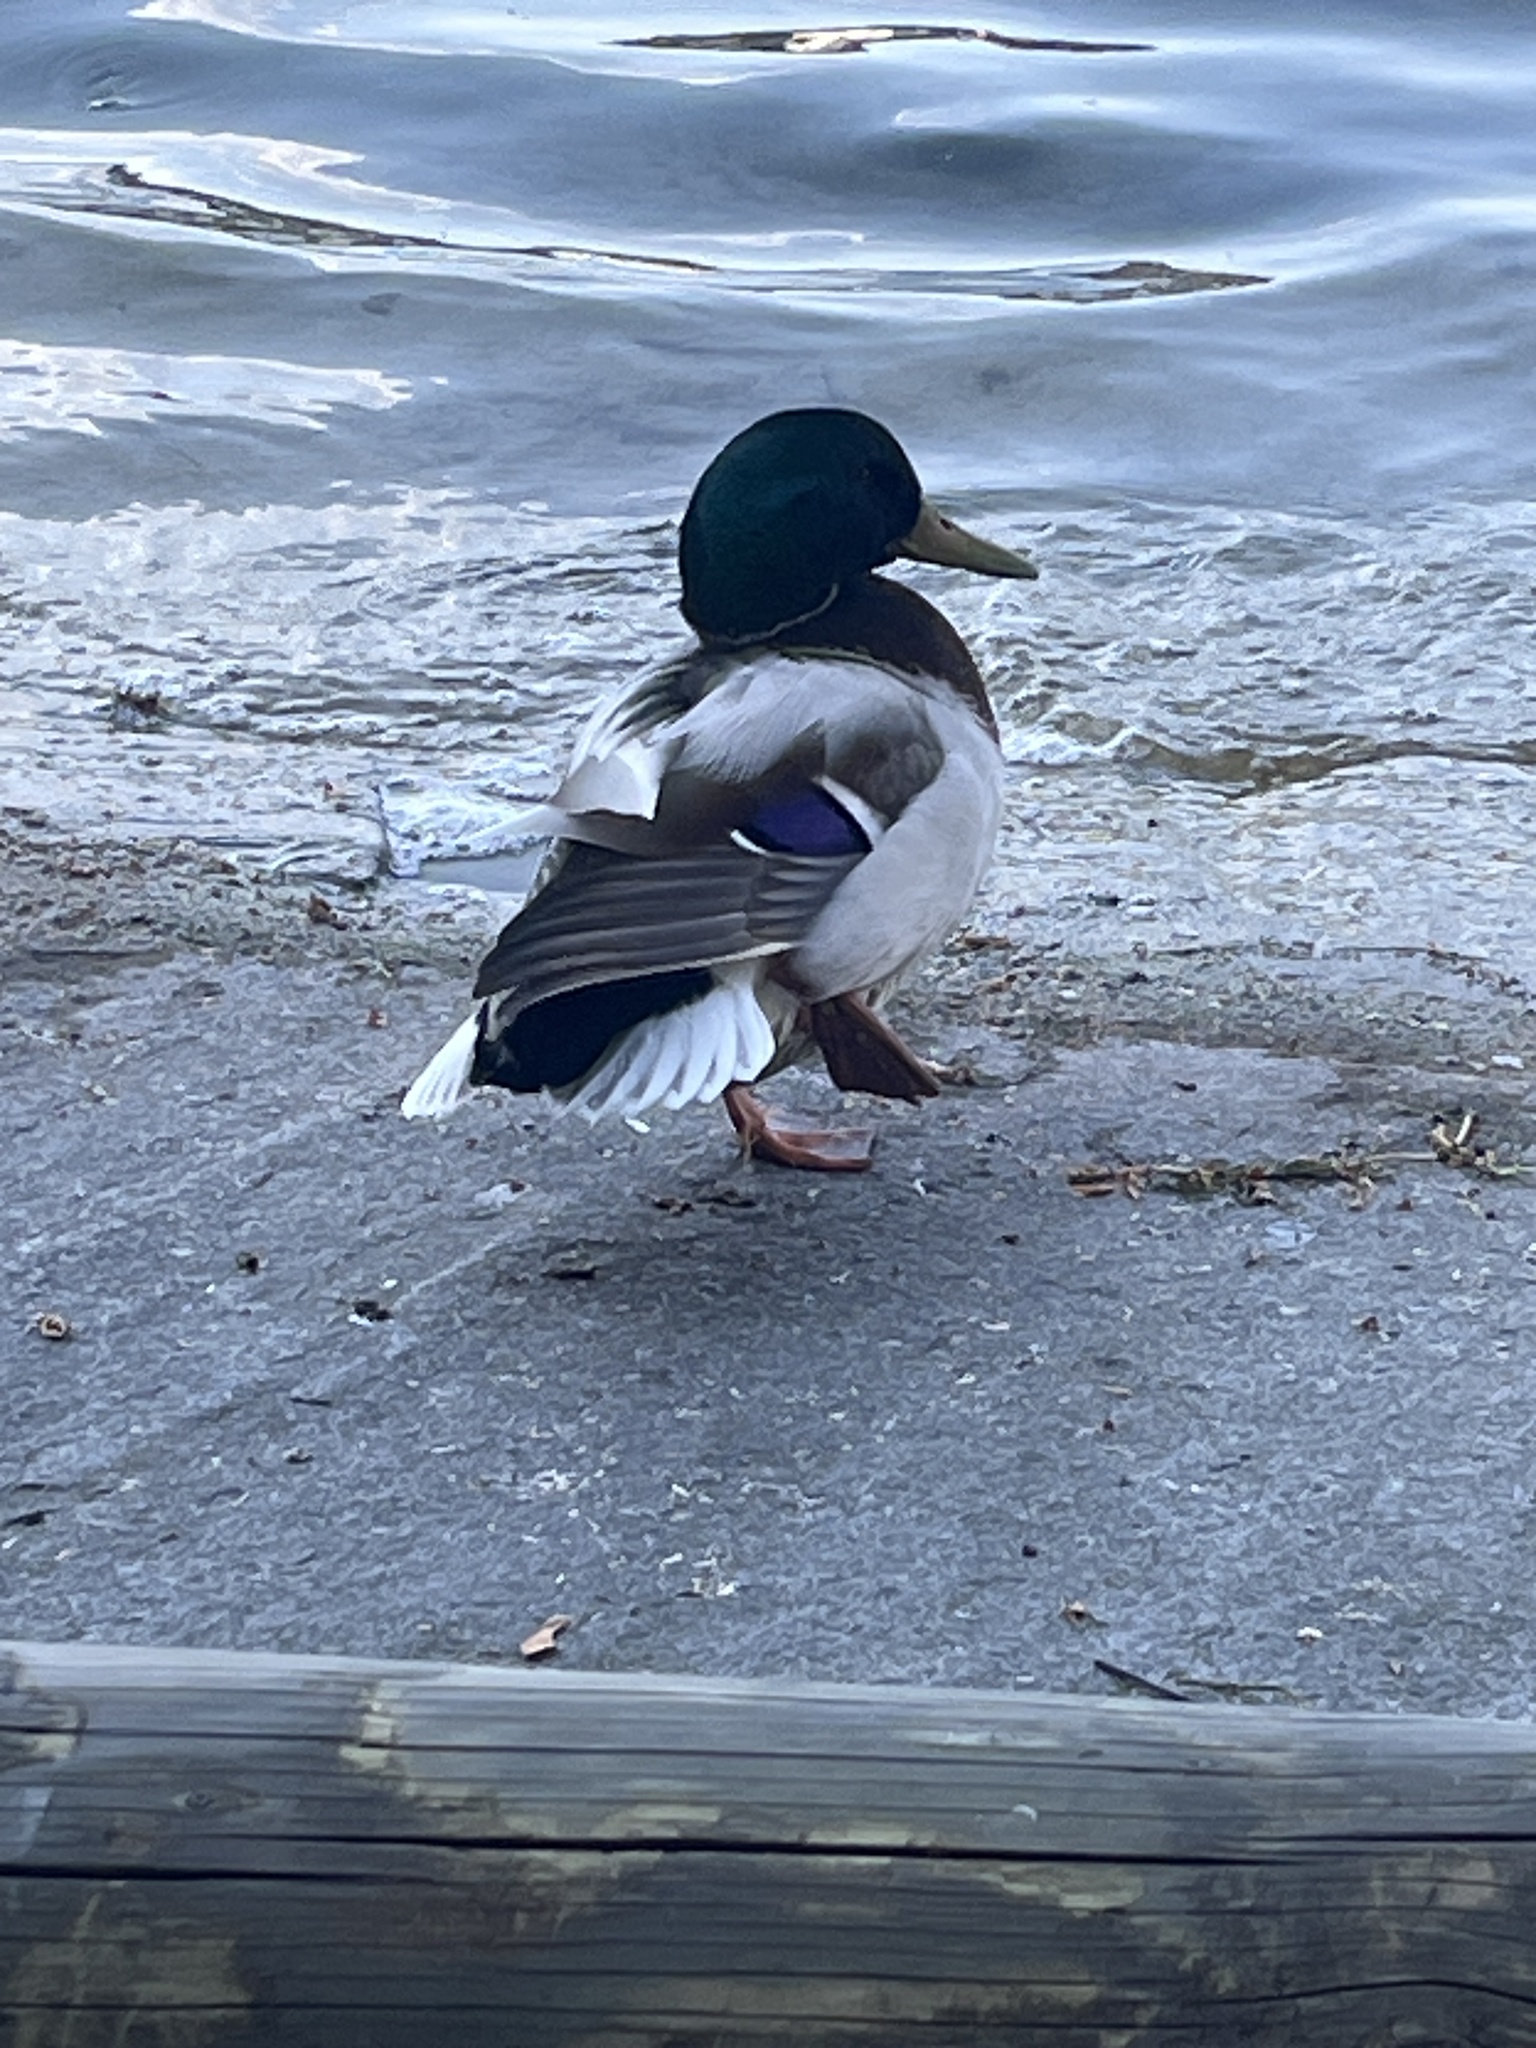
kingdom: Animalia
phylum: Chordata
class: Aves
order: Anseriformes
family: Anatidae
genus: Anas
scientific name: Anas platyrhynchos
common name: Mallard
